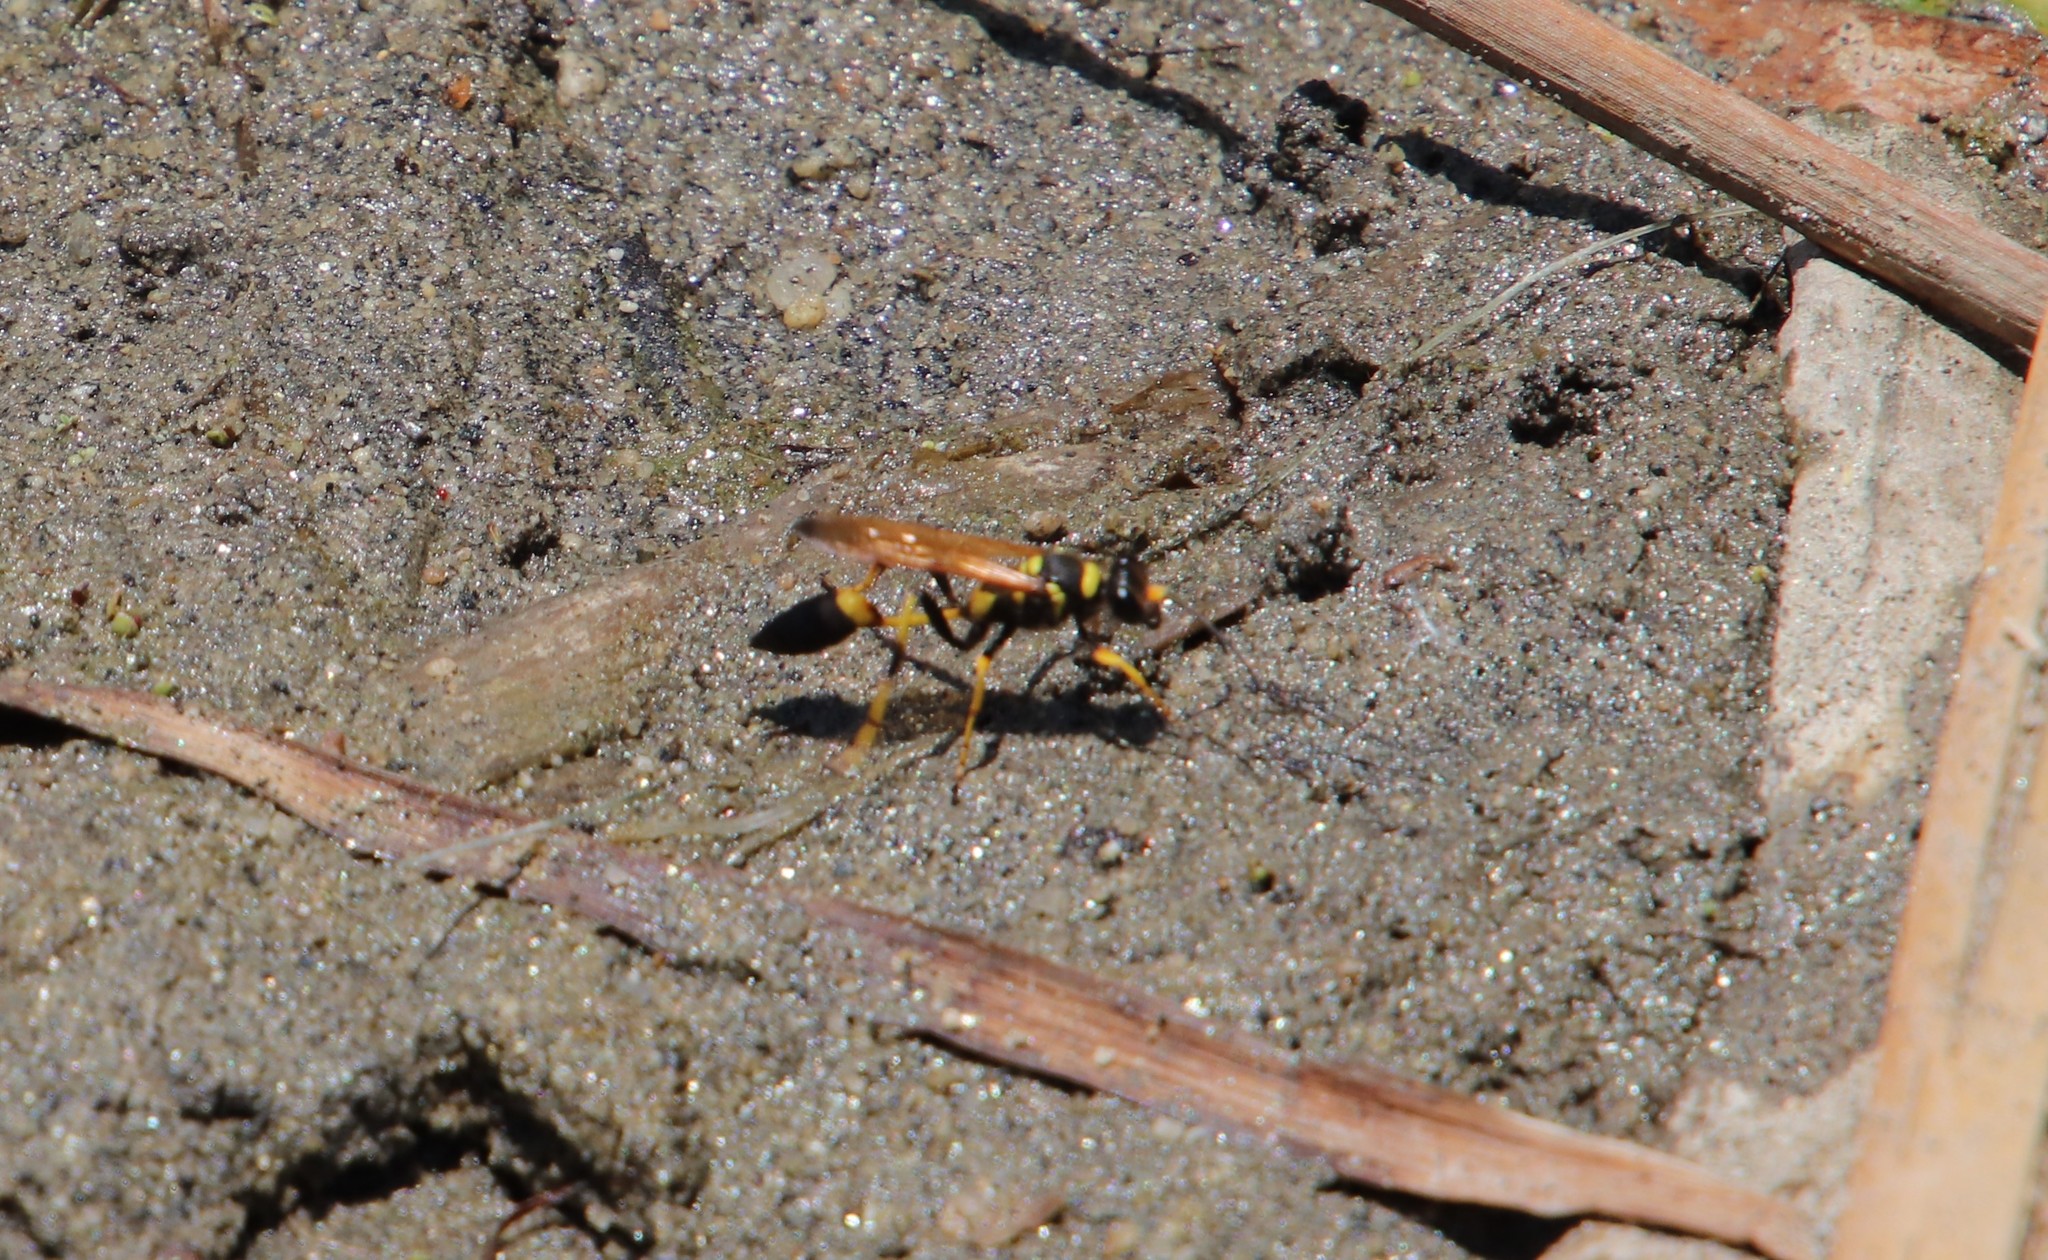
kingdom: Animalia
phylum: Arthropoda
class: Insecta
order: Hymenoptera
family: Sphecidae
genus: Sceliphron
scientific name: Sceliphron caementarium
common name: Mud dauber
